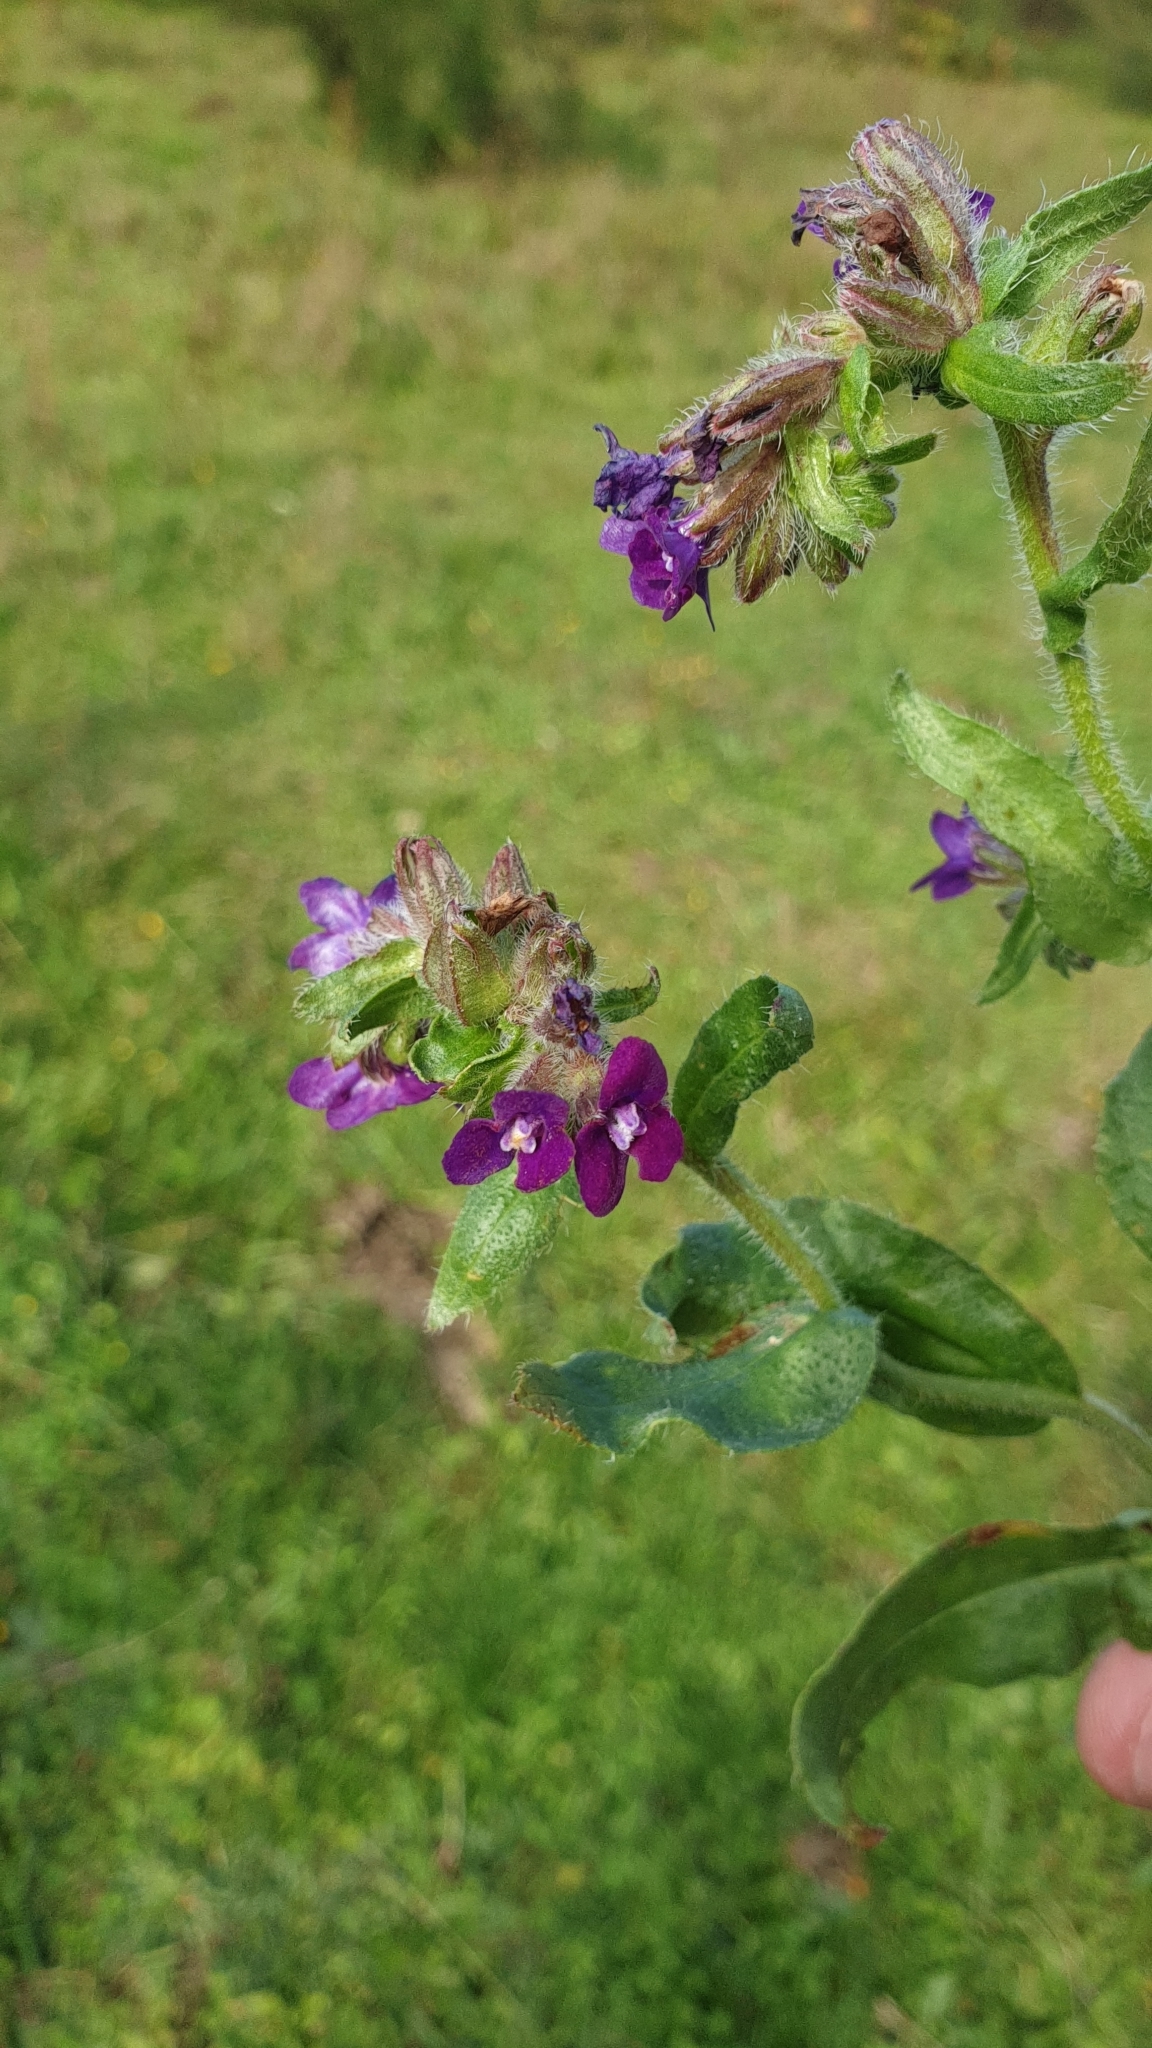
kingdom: Plantae
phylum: Tracheophyta
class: Magnoliopsida
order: Boraginales
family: Boraginaceae
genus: Anchusa
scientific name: Anchusa officinalis
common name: Alkanet
